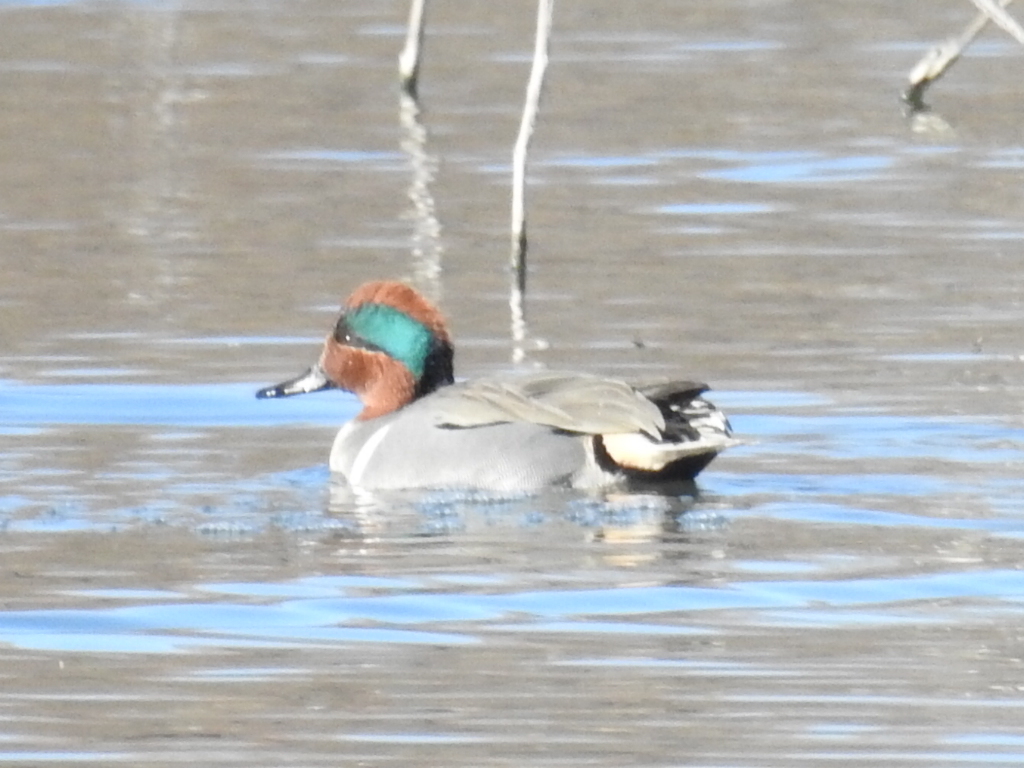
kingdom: Animalia
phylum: Chordata
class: Aves
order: Anseriformes
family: Anatidae
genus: Anas
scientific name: Anas crecca
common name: Eurasian teal
